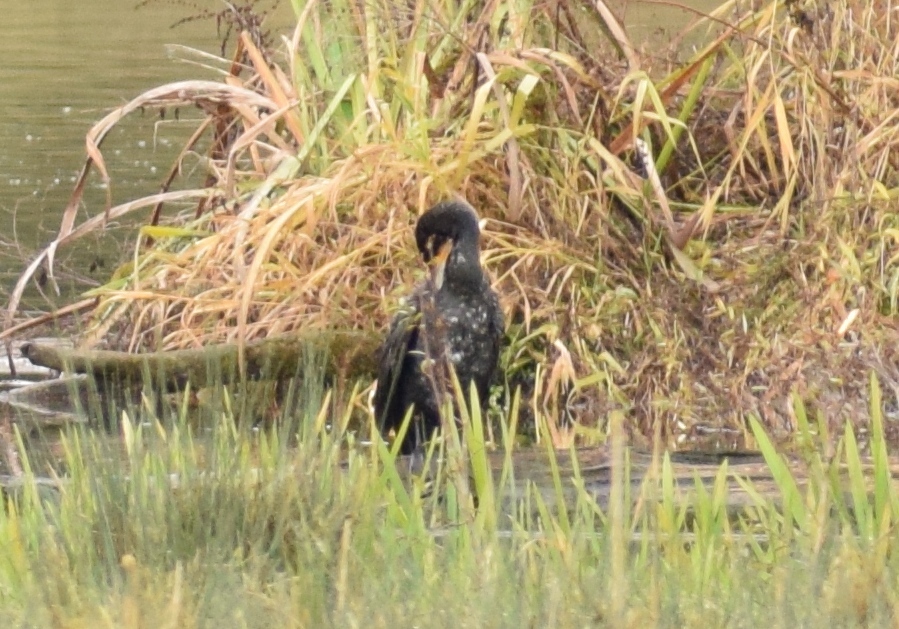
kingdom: Animalia
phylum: Chordata
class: Aves
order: Suliformes
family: Phalacrocoracidae
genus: Phalacrocorax
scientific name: Phalacrocorax carbo
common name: Great cormorant
